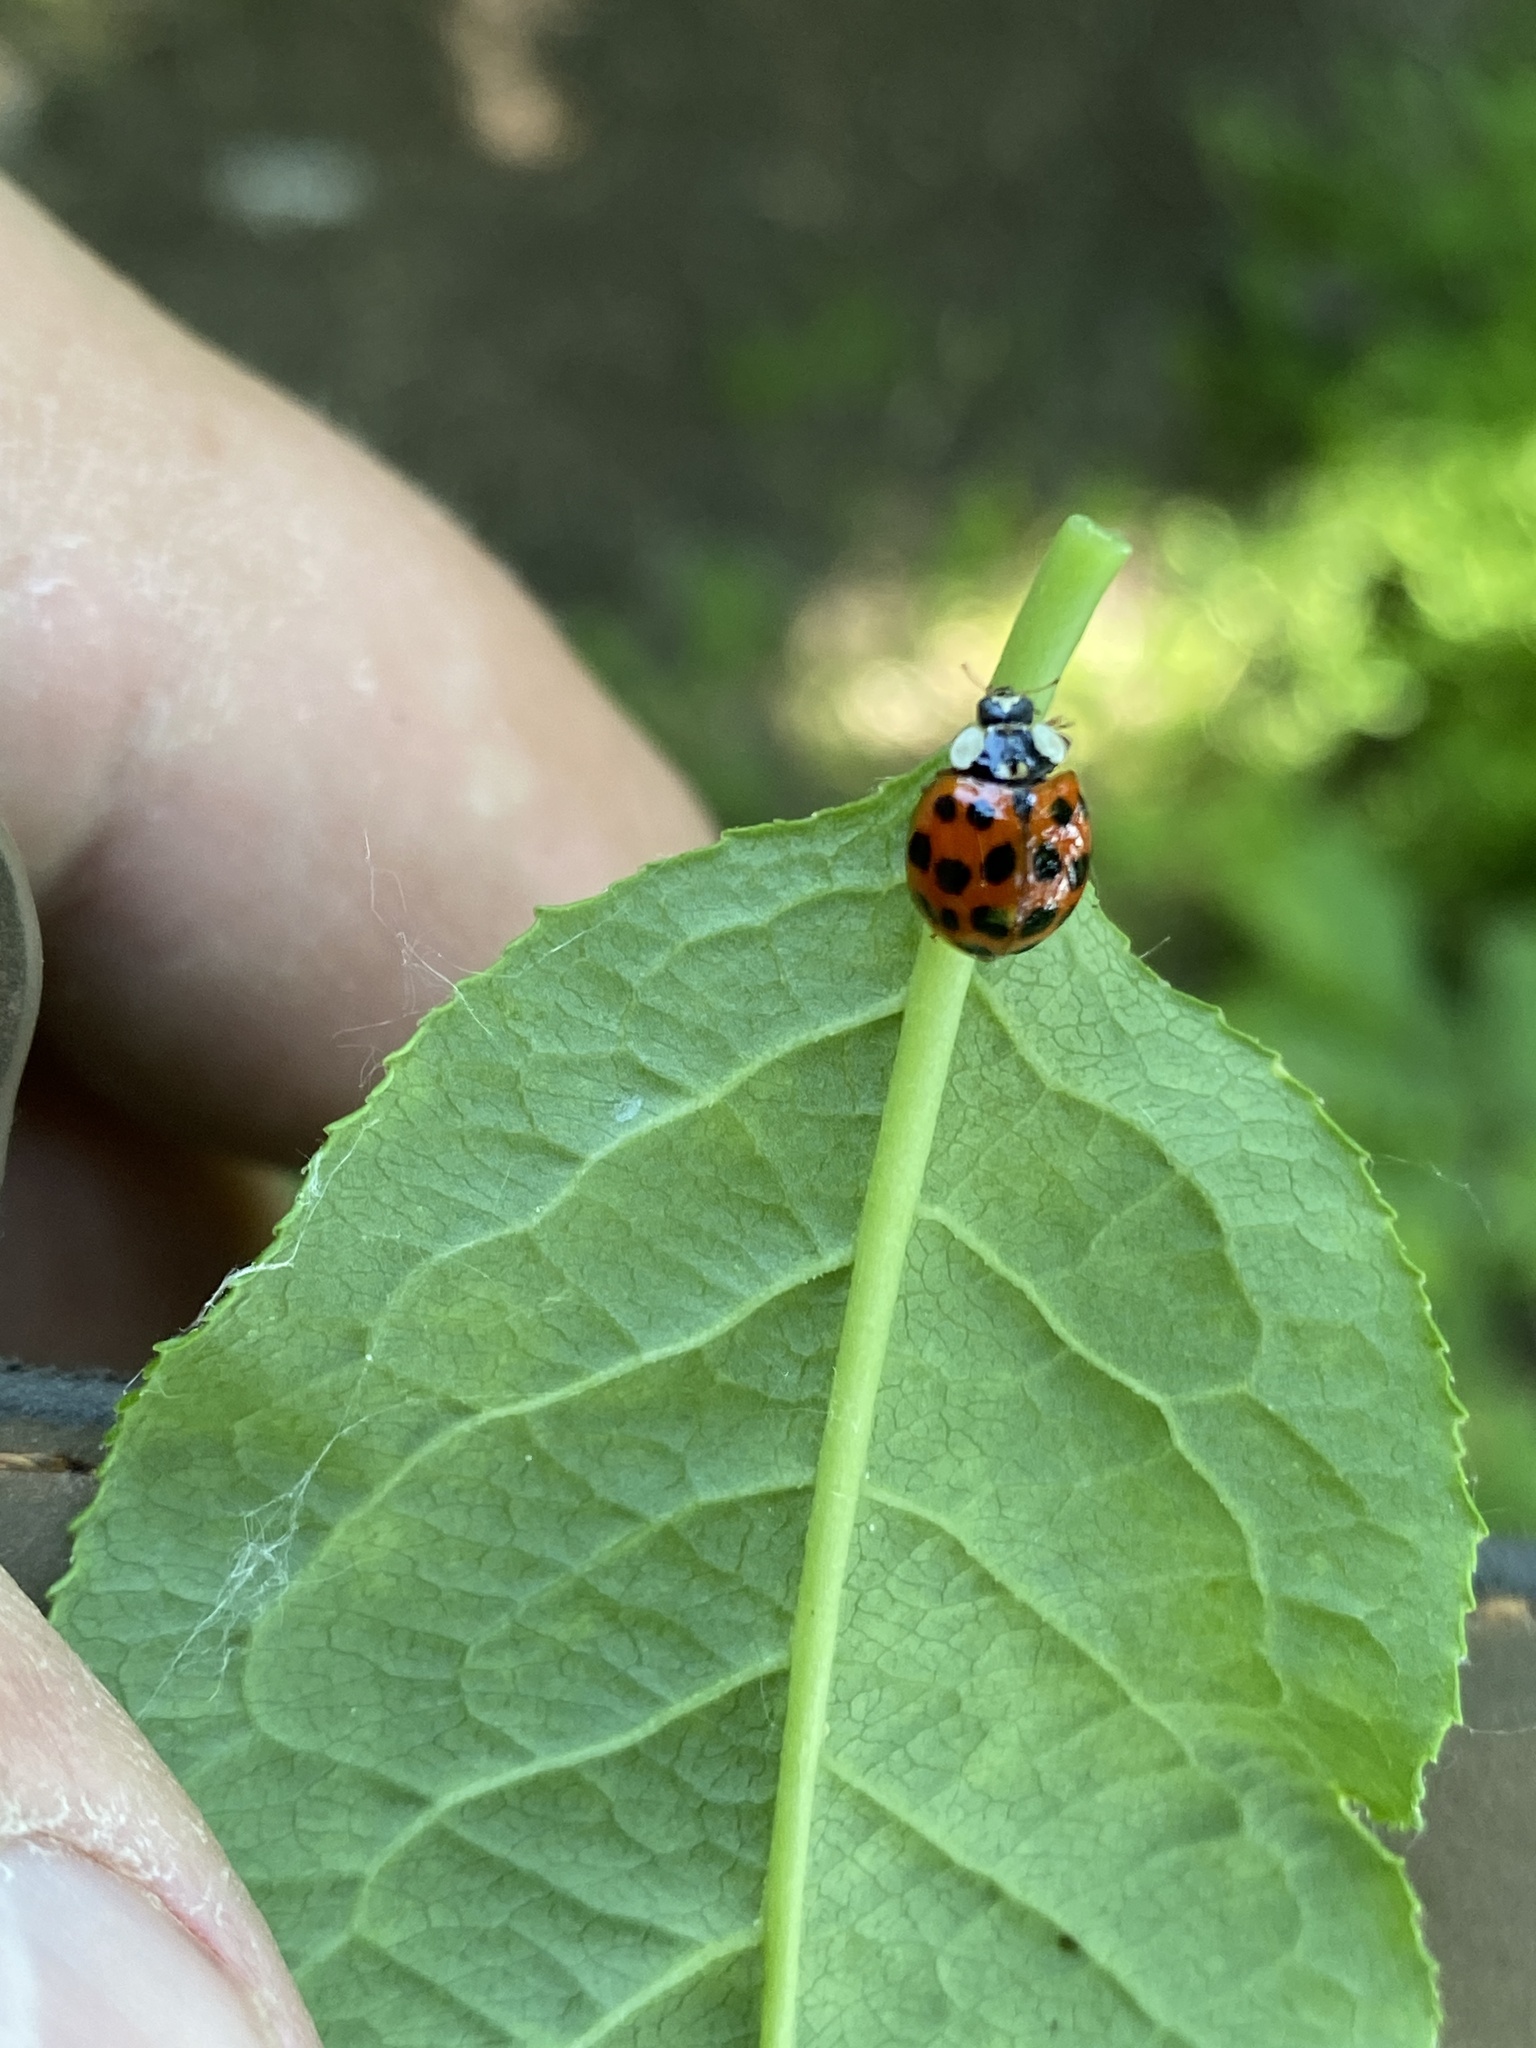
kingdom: Animalia
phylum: Arthropoda
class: Insecta
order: Coleoptera
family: Coccinellidae
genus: Harmonia
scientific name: Harmonia axyridis
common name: Harlequin ladybird
